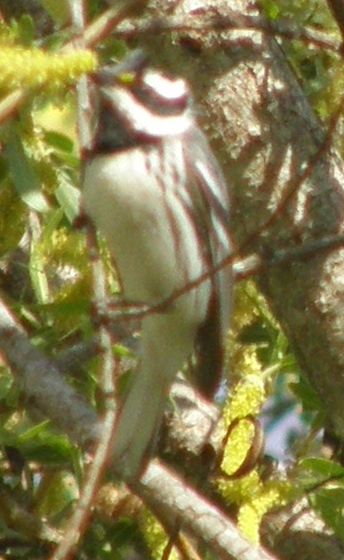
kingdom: Animalia
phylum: Chordata
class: Aves
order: Passeriformes
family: Parulidae
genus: Setophaga
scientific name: Setophaga nigrescens
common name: Black-throated gray warbler
